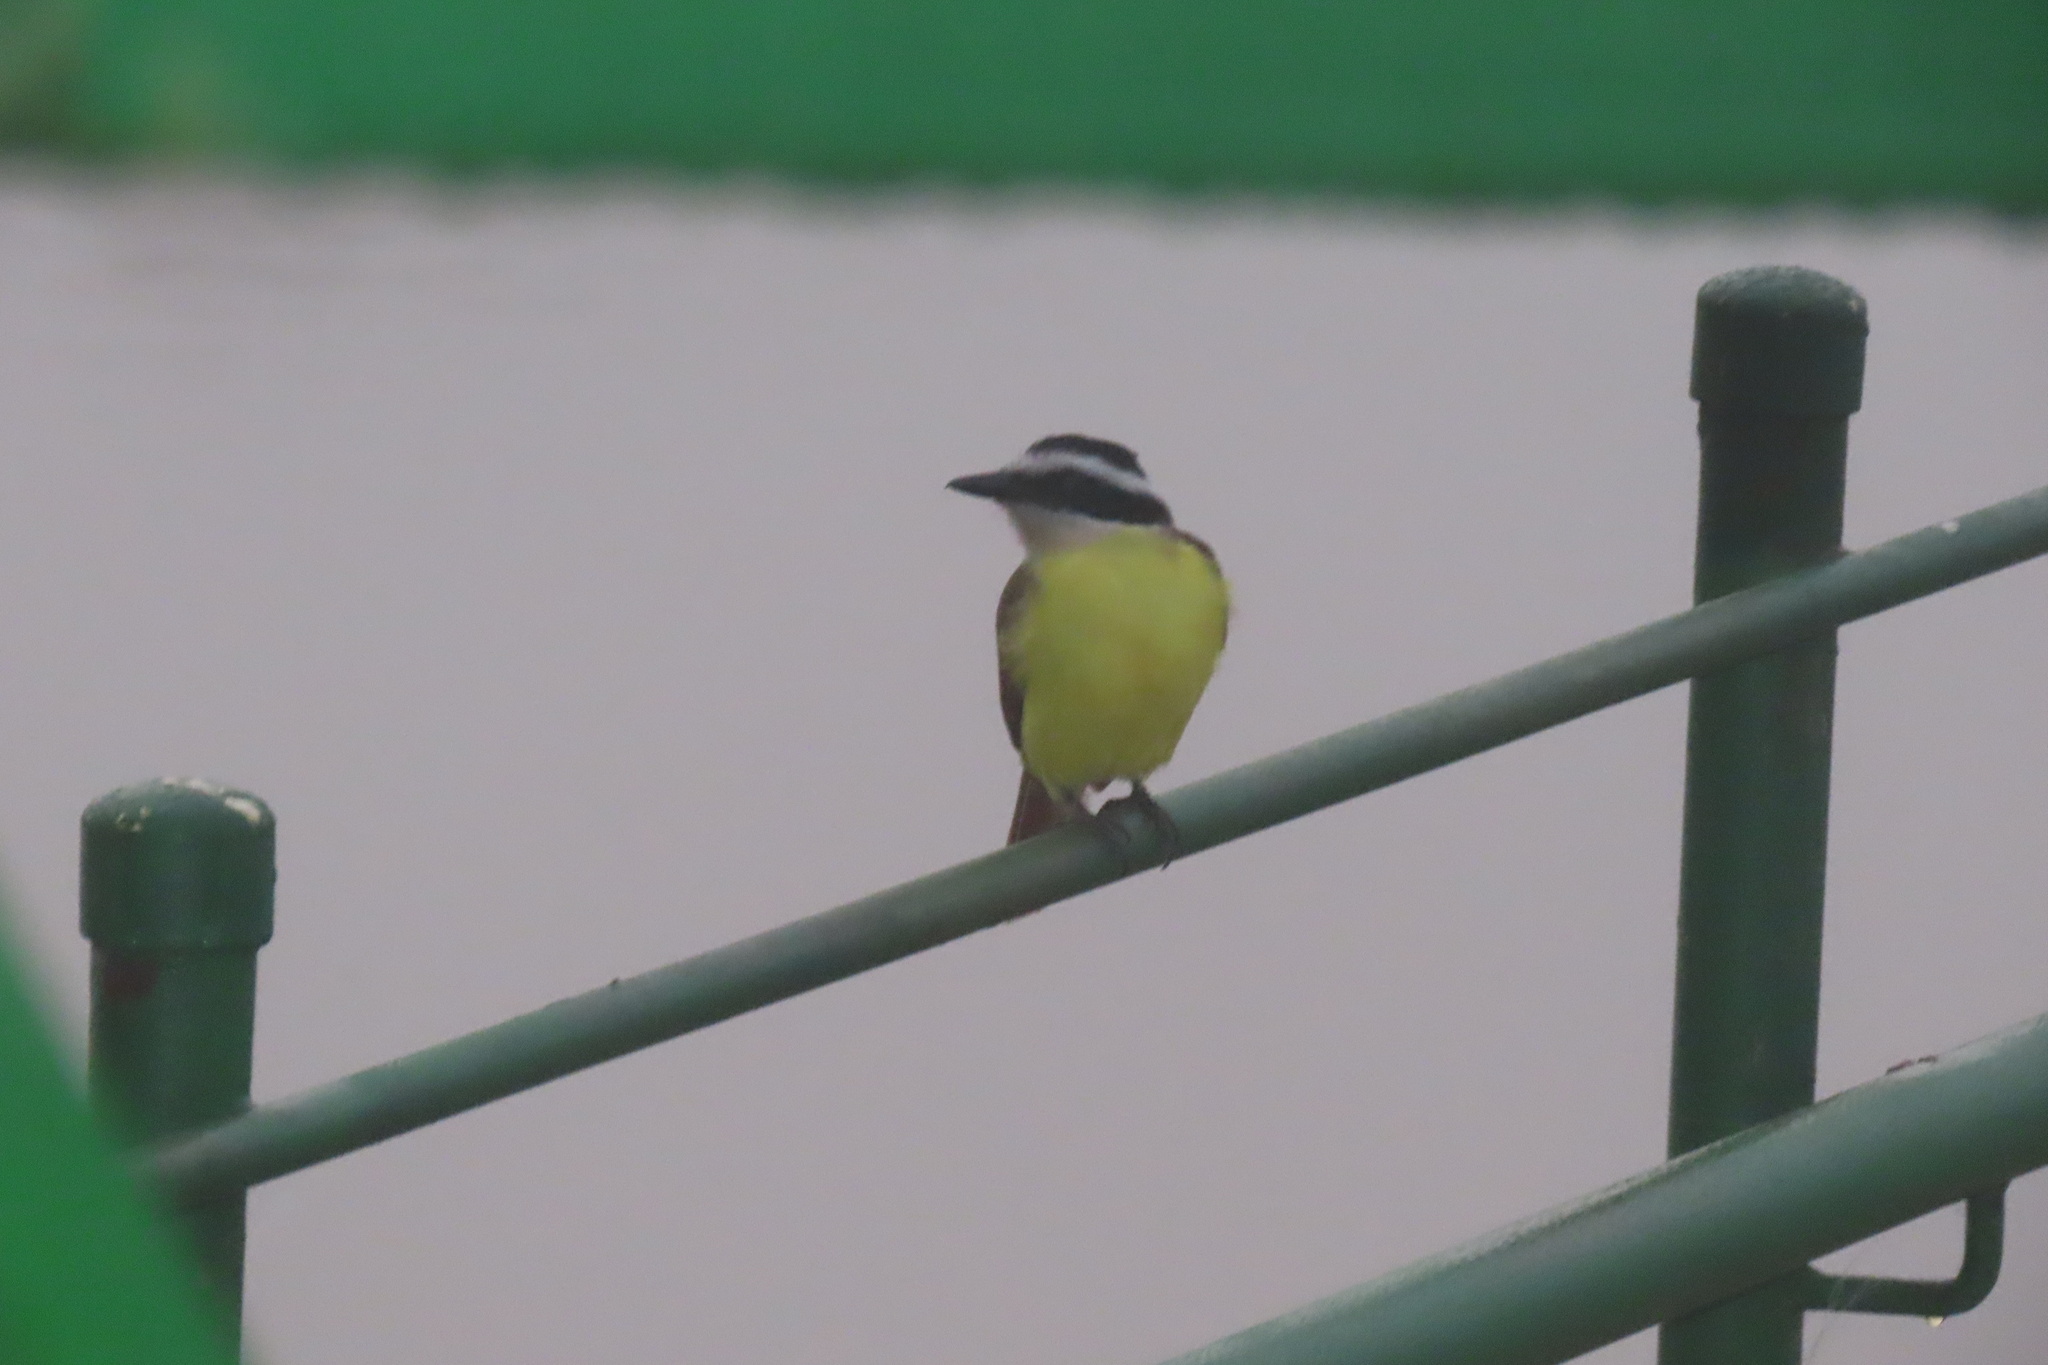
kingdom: Animalia
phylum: Chordata
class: Aves
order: Passeriformes
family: Tyrannidae
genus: Pitangus
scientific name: Pitangus sulphuratus
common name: Great kiskadee
